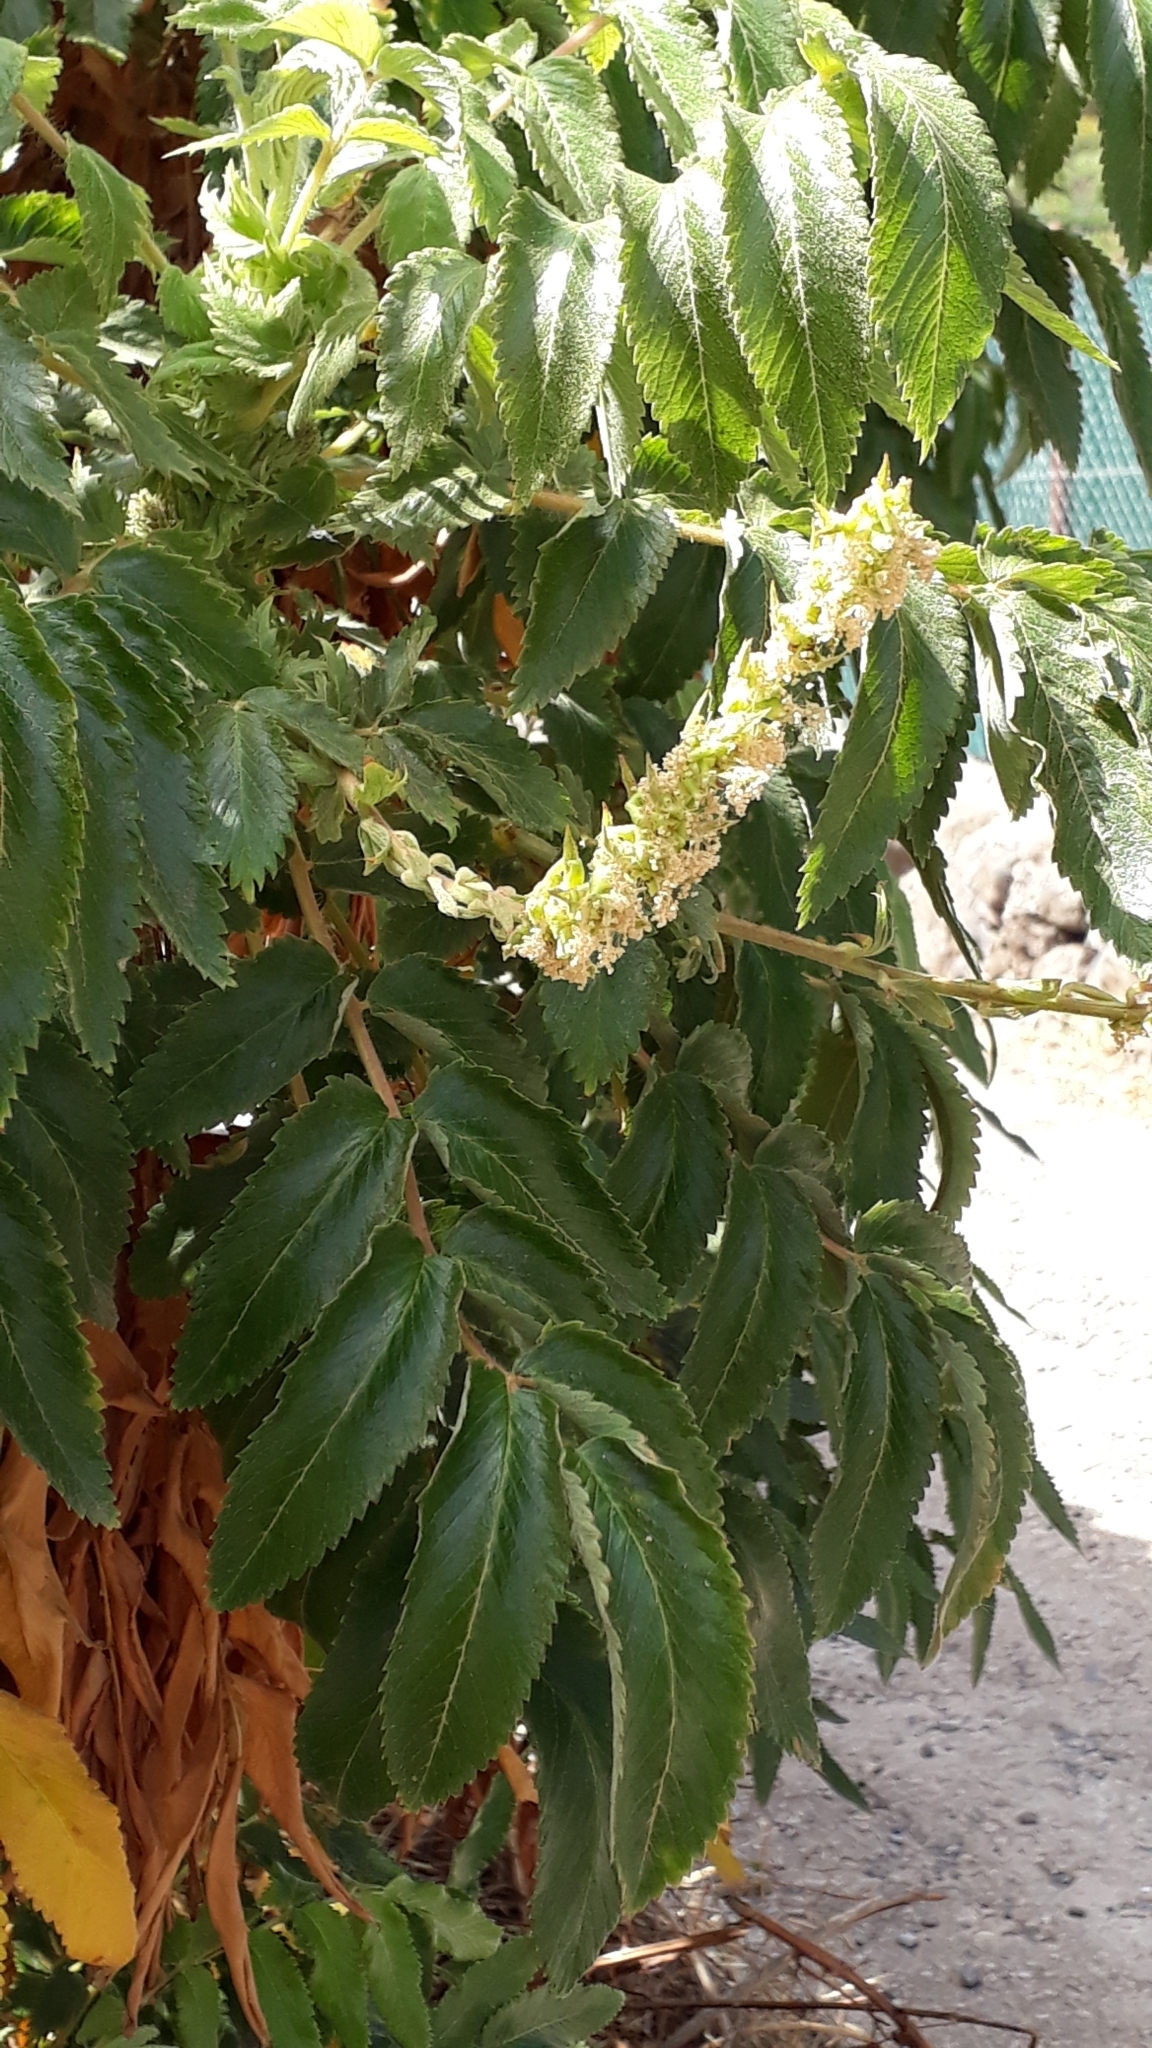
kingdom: Plantae
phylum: Tracheophyta
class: Magnoliopsida
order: Rosales
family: Rosaceae
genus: Bencomia
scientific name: Bencomia caudata
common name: Bencomia
